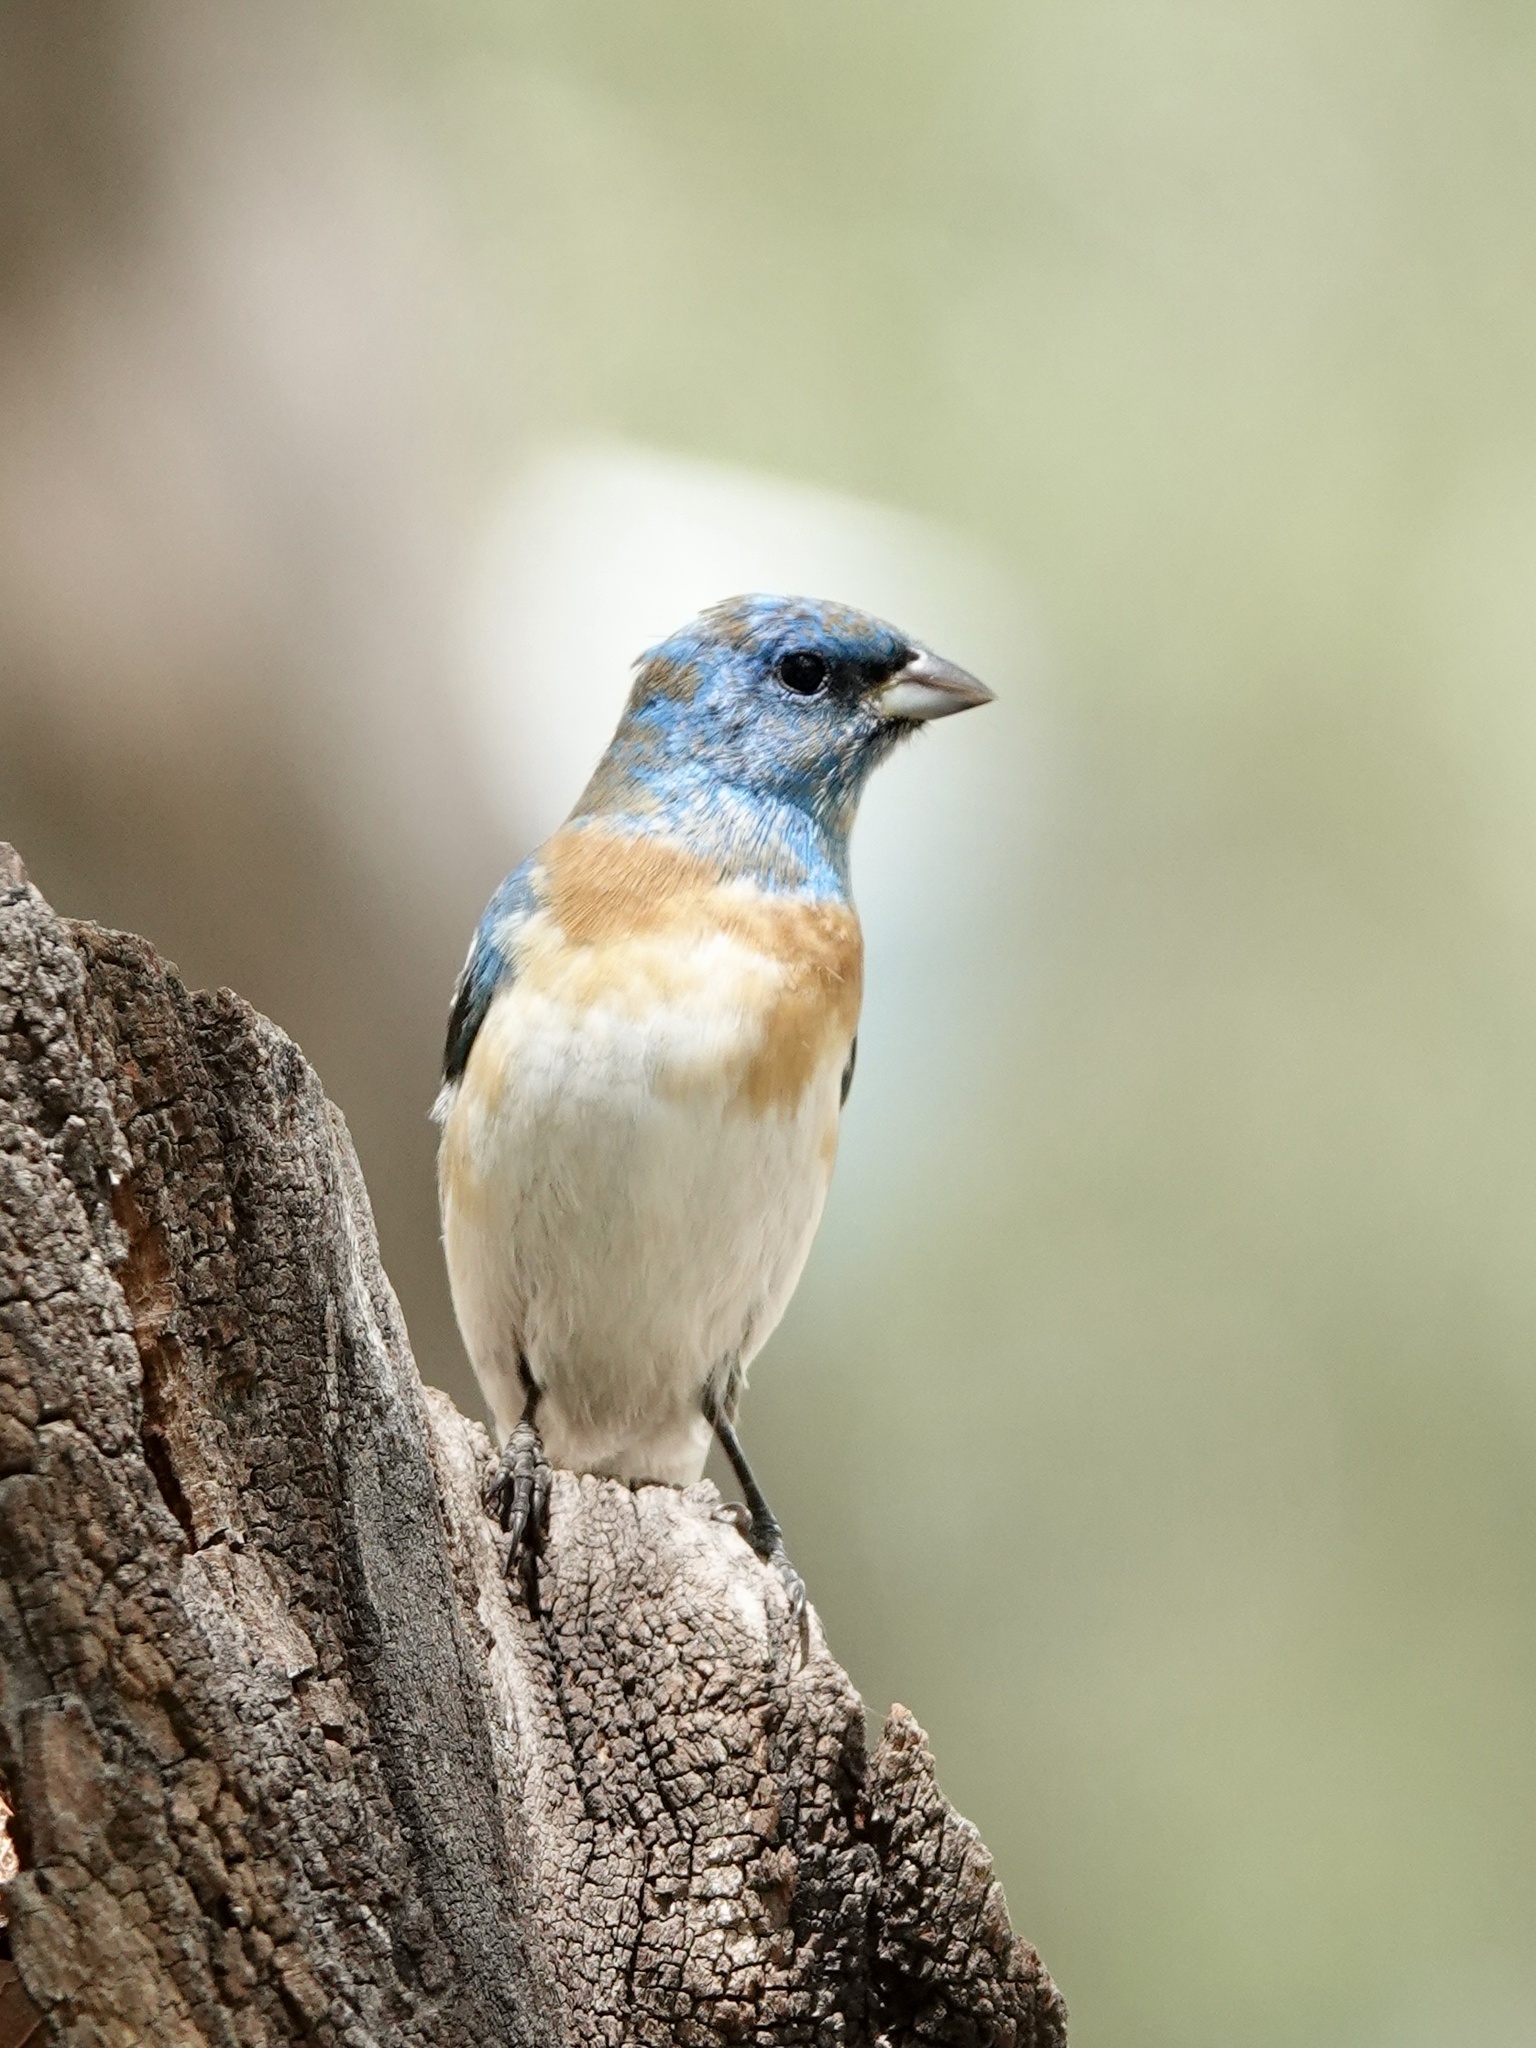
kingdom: Animalia
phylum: Chordata
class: Aves
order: Passeriformes
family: Cardinalidae
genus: Passerina
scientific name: Passerina amoena
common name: Lazuli bunting
